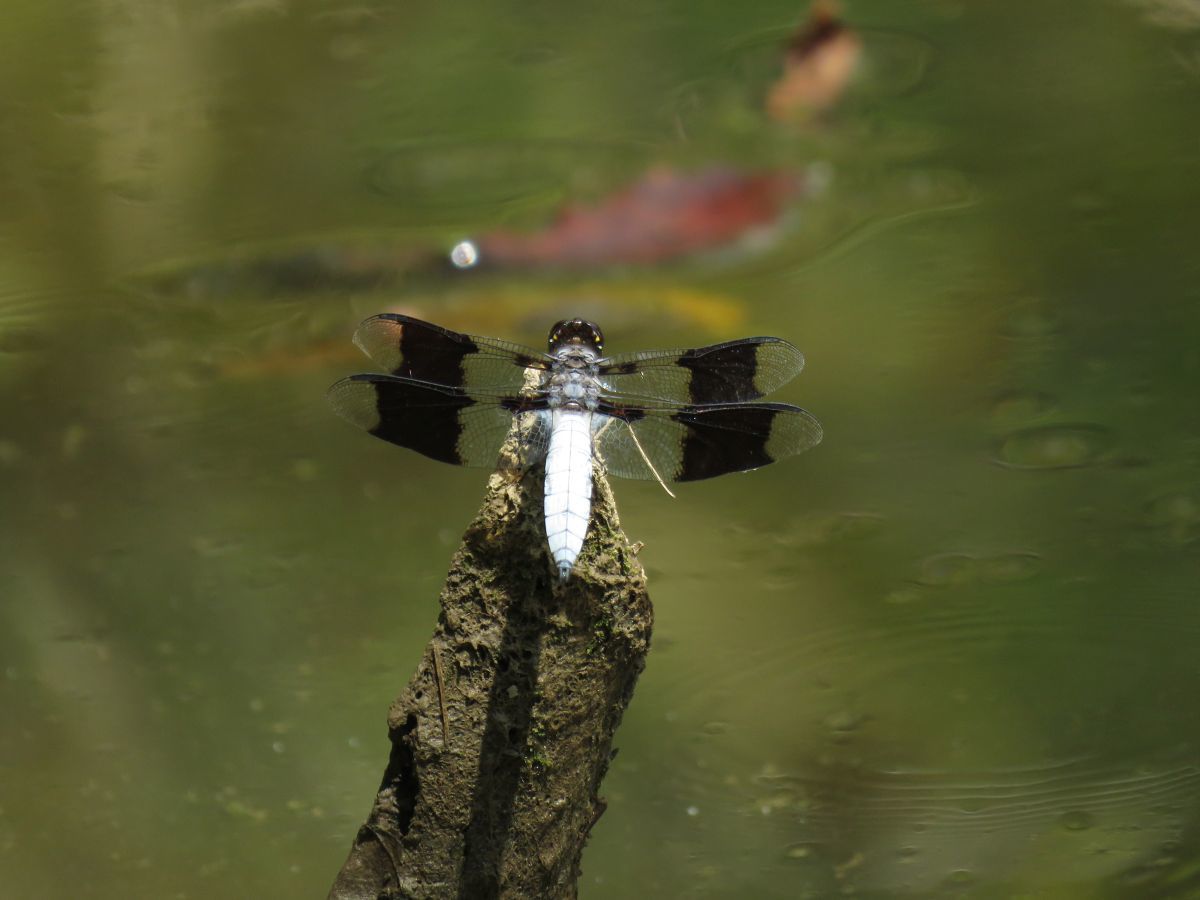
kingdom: Animalia
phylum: Arthropoda
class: Insecta
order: Odonata
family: Libellulidae
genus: Plathemis
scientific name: Plathemis lydia
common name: Common whitetail
